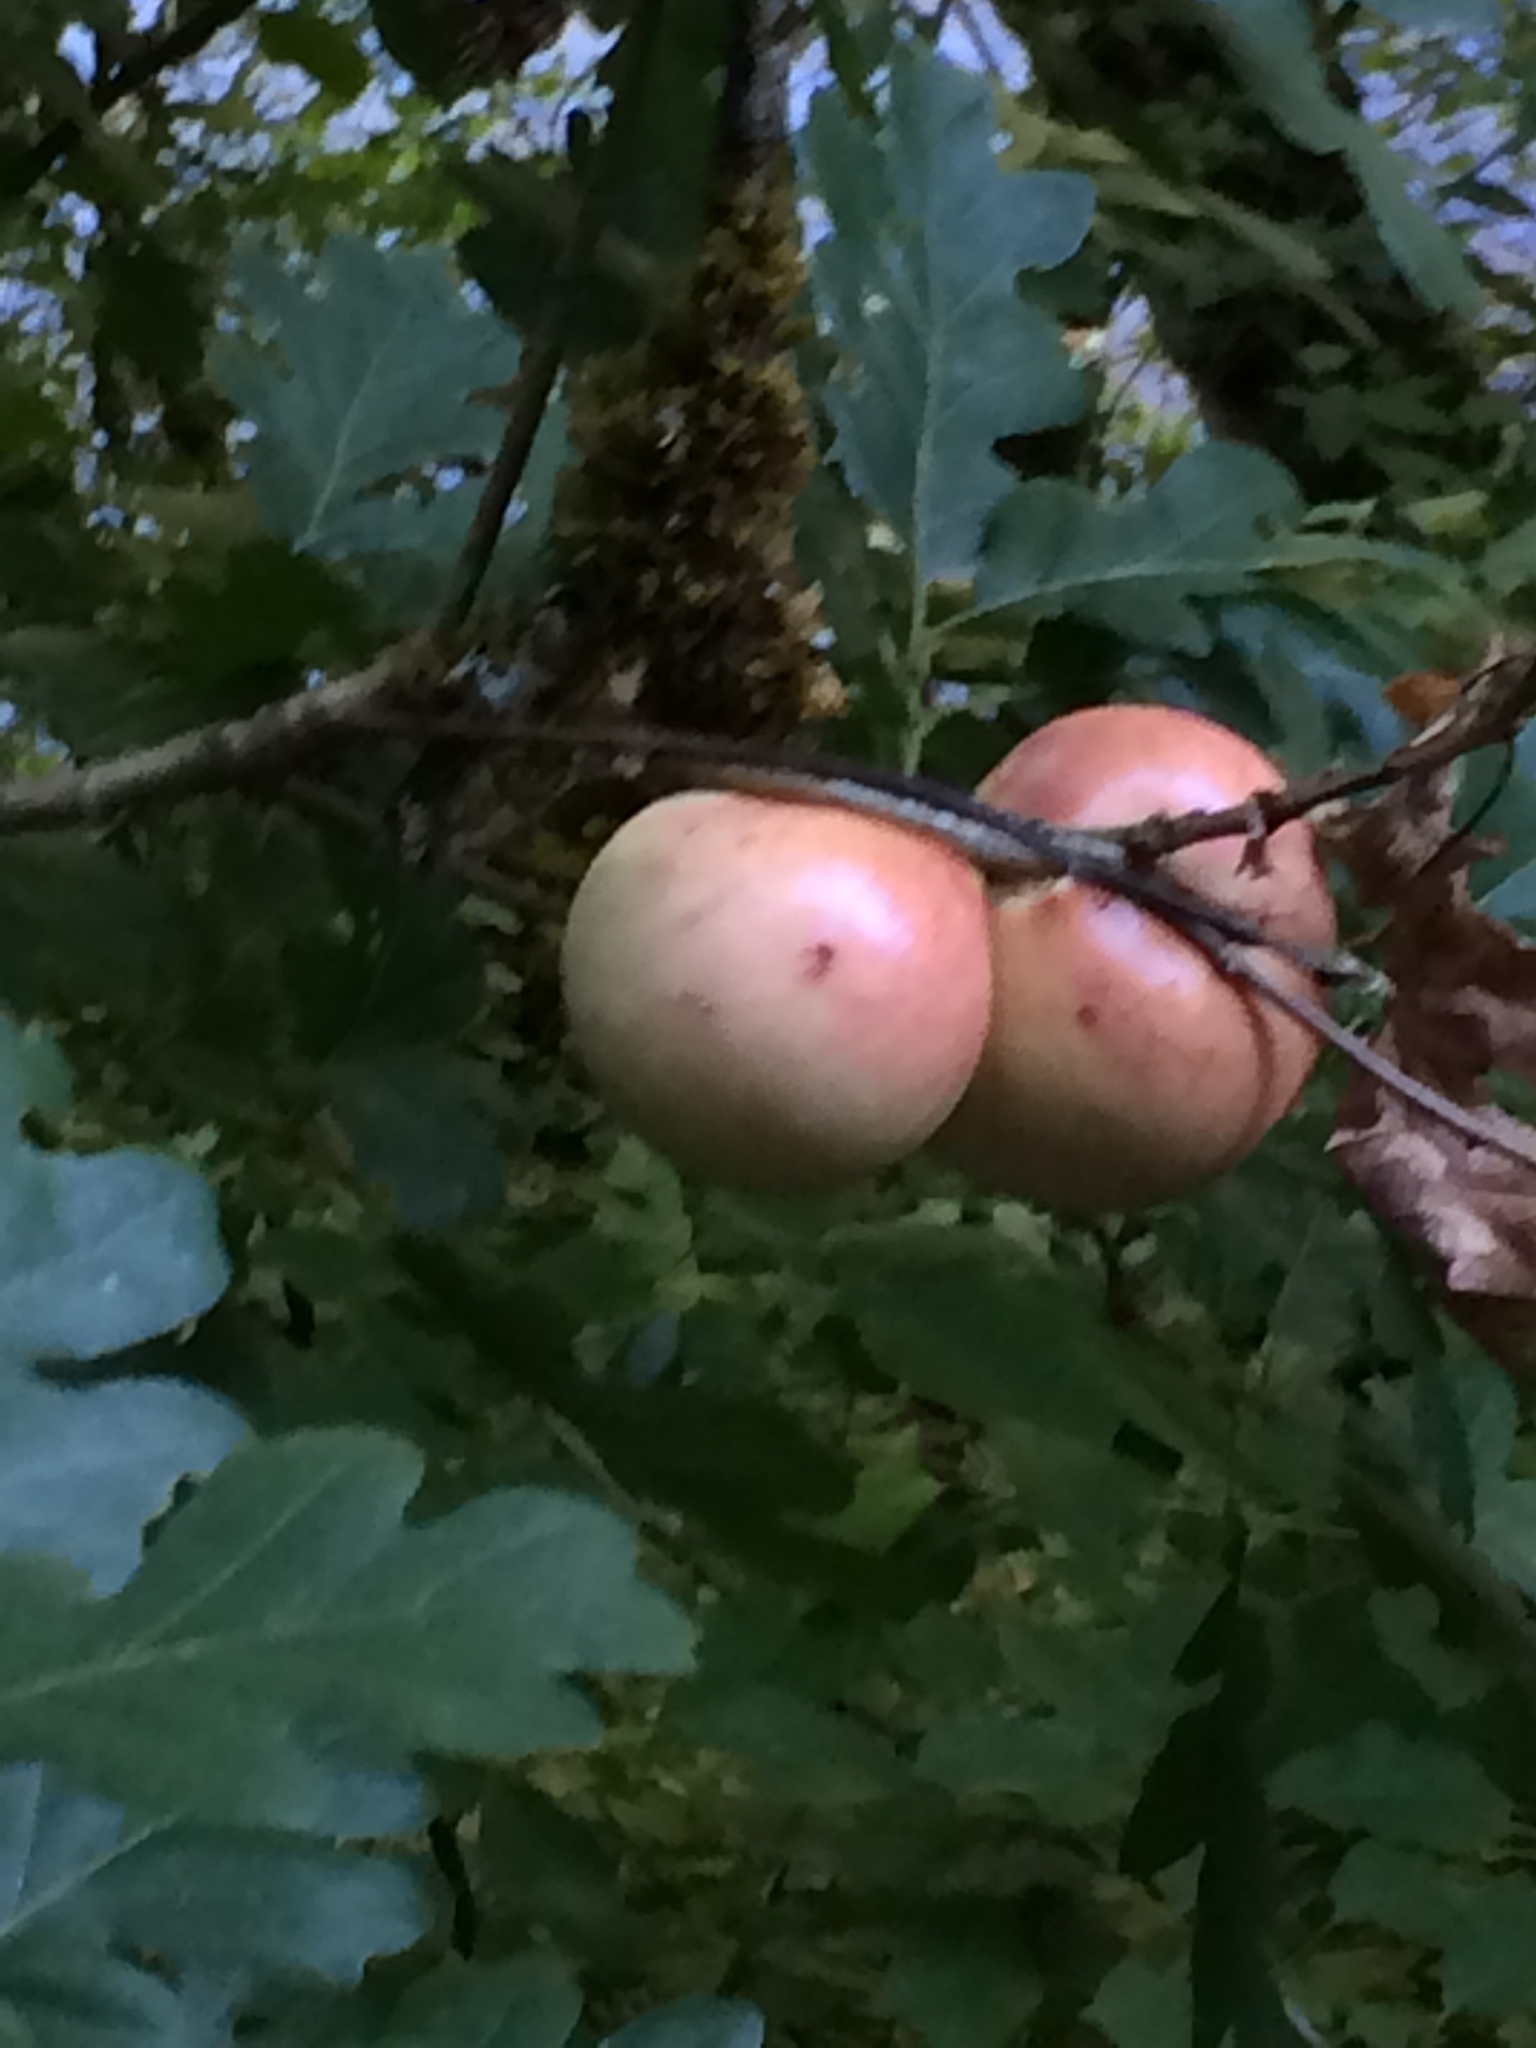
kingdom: Animalia
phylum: Arthropoda
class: Insecta
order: Hymenoptera
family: Cynipidae
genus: Andricus
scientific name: Andricus quercuscalifornicus
